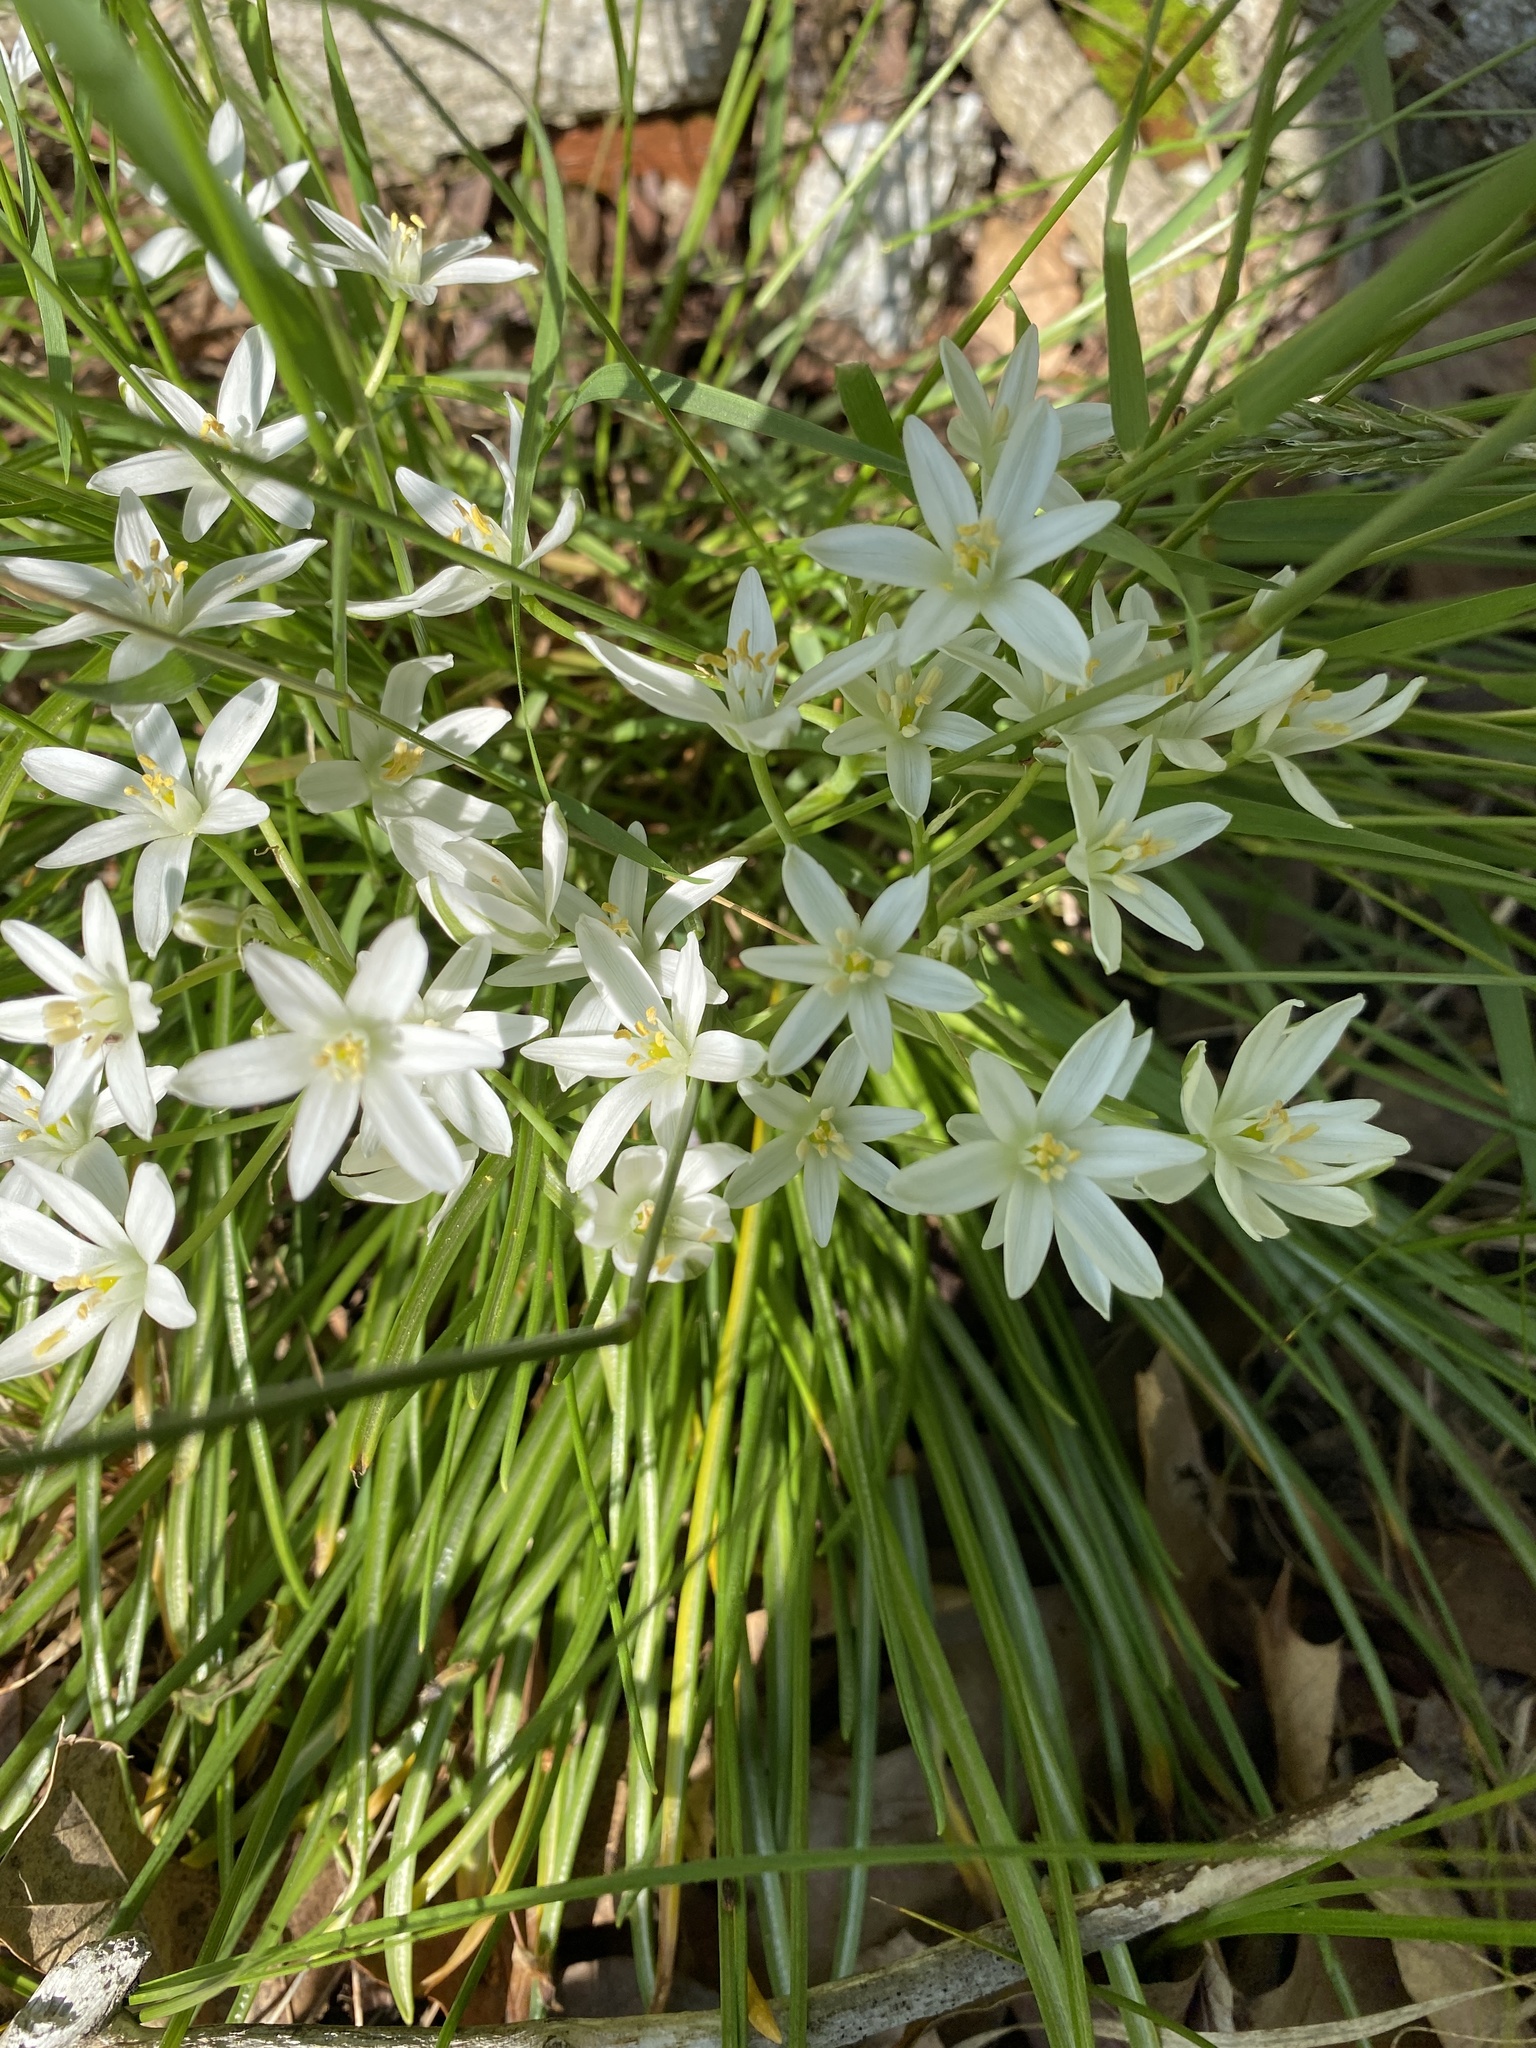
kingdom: Plantae
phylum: Tracheophyta
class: Liliopsida
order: Asparagales
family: Asparagaceae
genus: Ornithogalum
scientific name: Ornithogalum umbellatum
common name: Garden star-of-bethlehem
